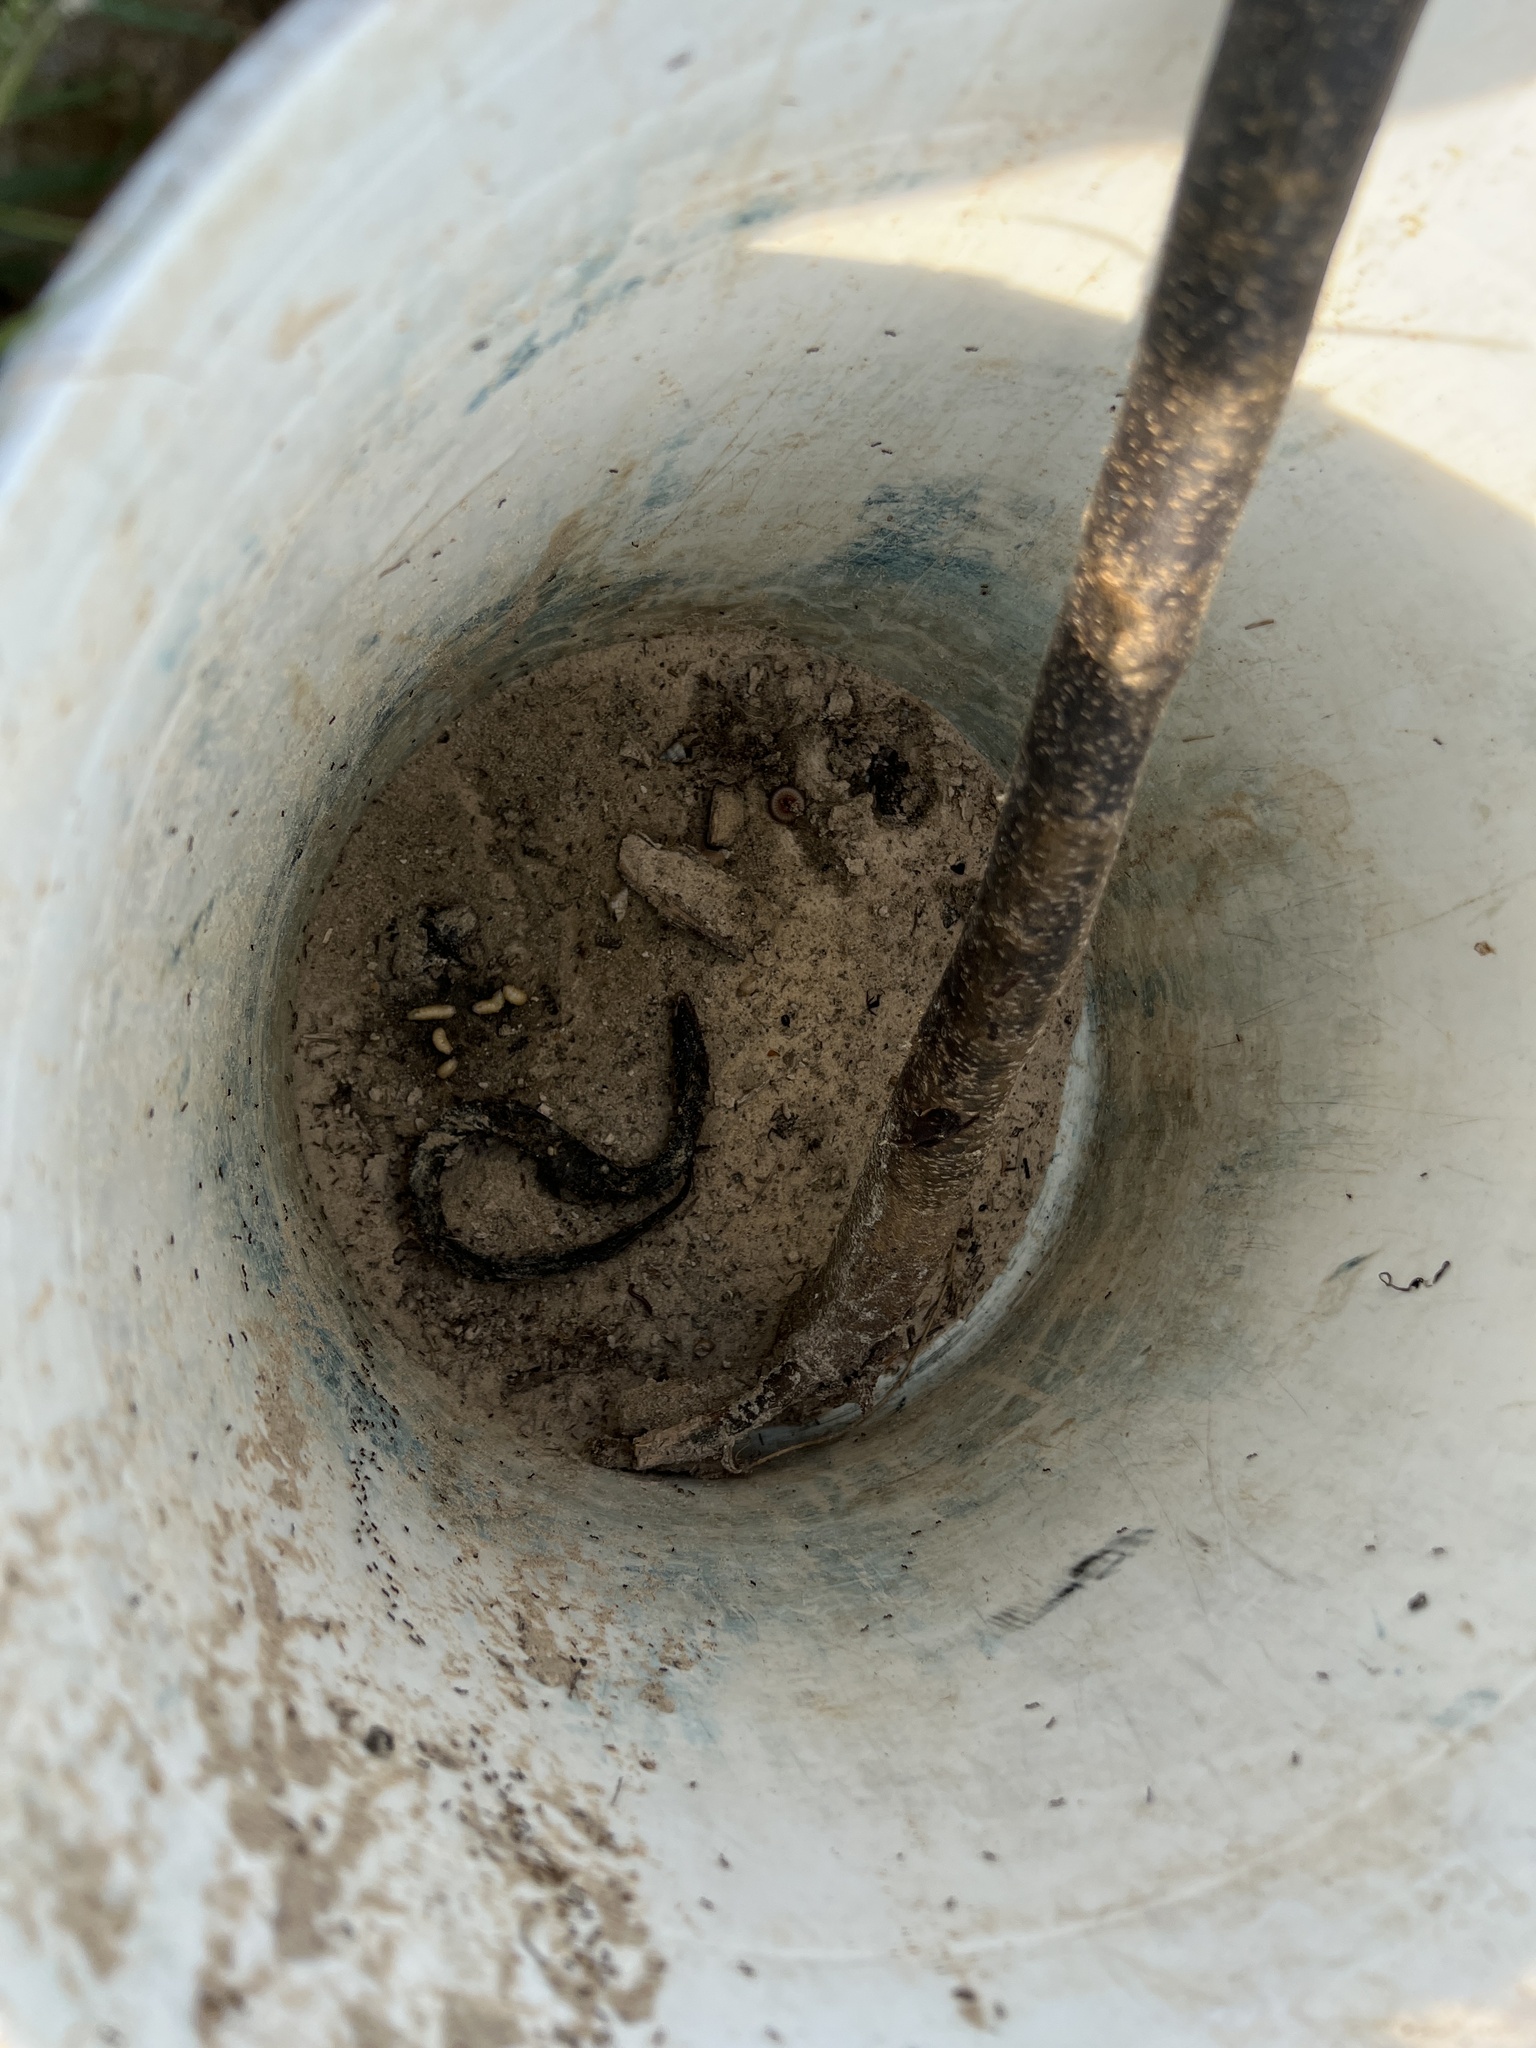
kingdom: Animalia
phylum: Chordata
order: Synbranchiformes
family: Synbranchidae
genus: Synbranchus
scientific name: Synbranchus marmoratus
